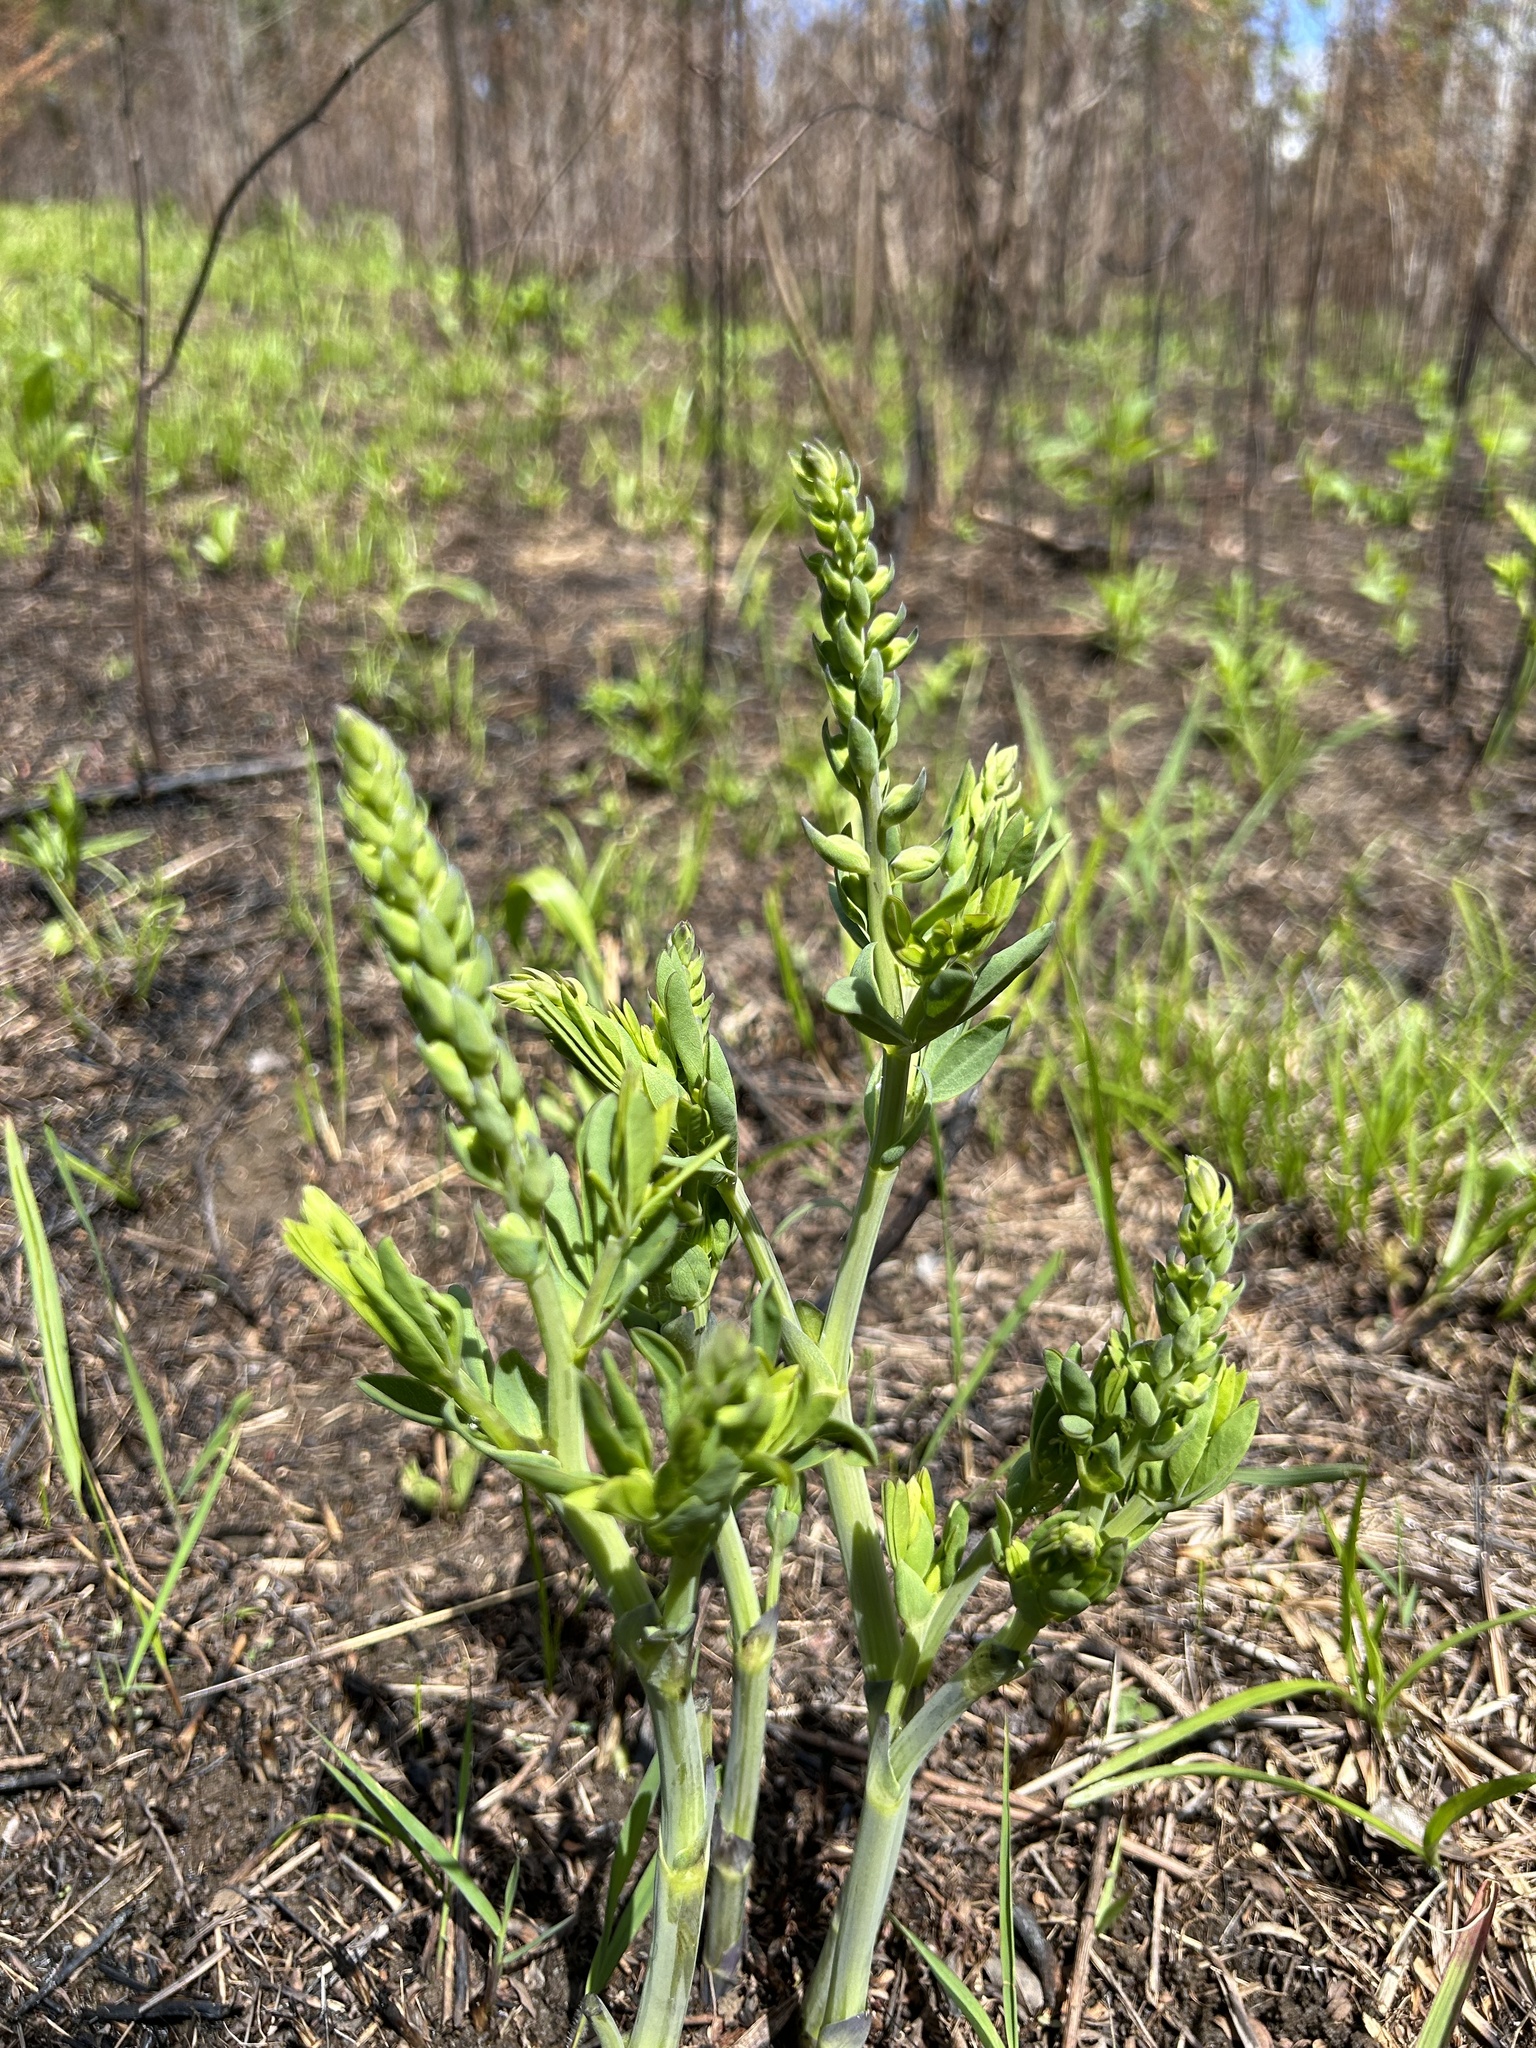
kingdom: Plantae
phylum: Tracheophyta
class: Magnoliopsida
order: Fabales
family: Fabaceae
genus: Baptisia
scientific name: Baptisia aberrans
